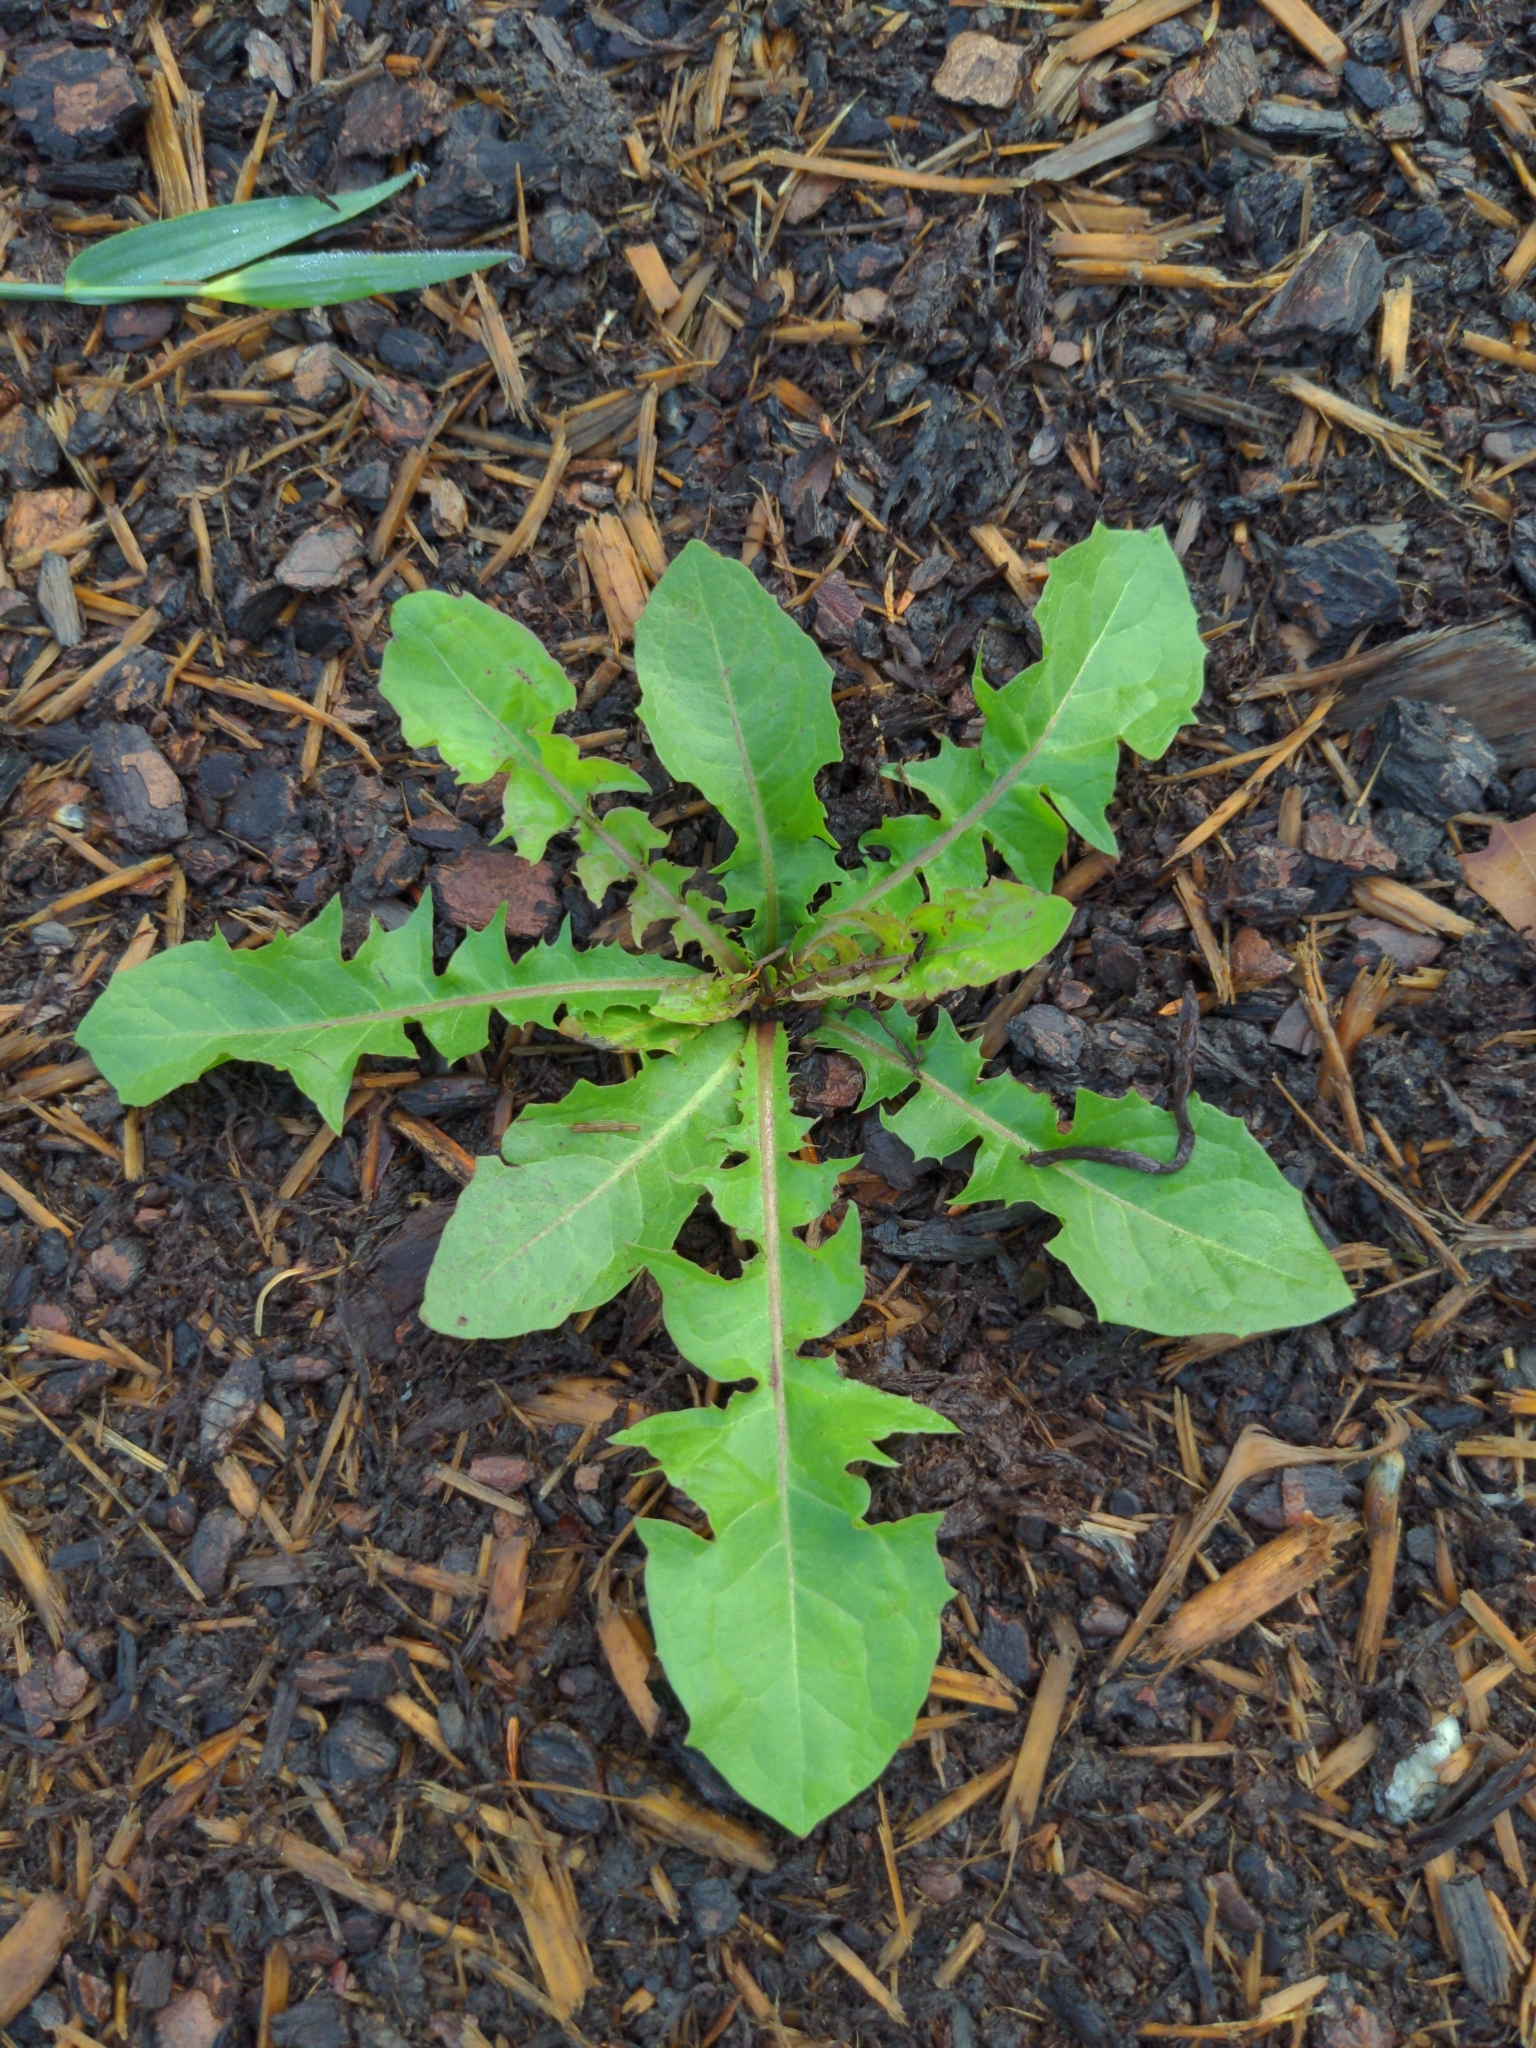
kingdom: Plantae
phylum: Tracheophyta
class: Magnoliopsida
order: Asterales
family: Asteraceae
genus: Taraxacum
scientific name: Taraxacum officinale
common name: Common dandelion
